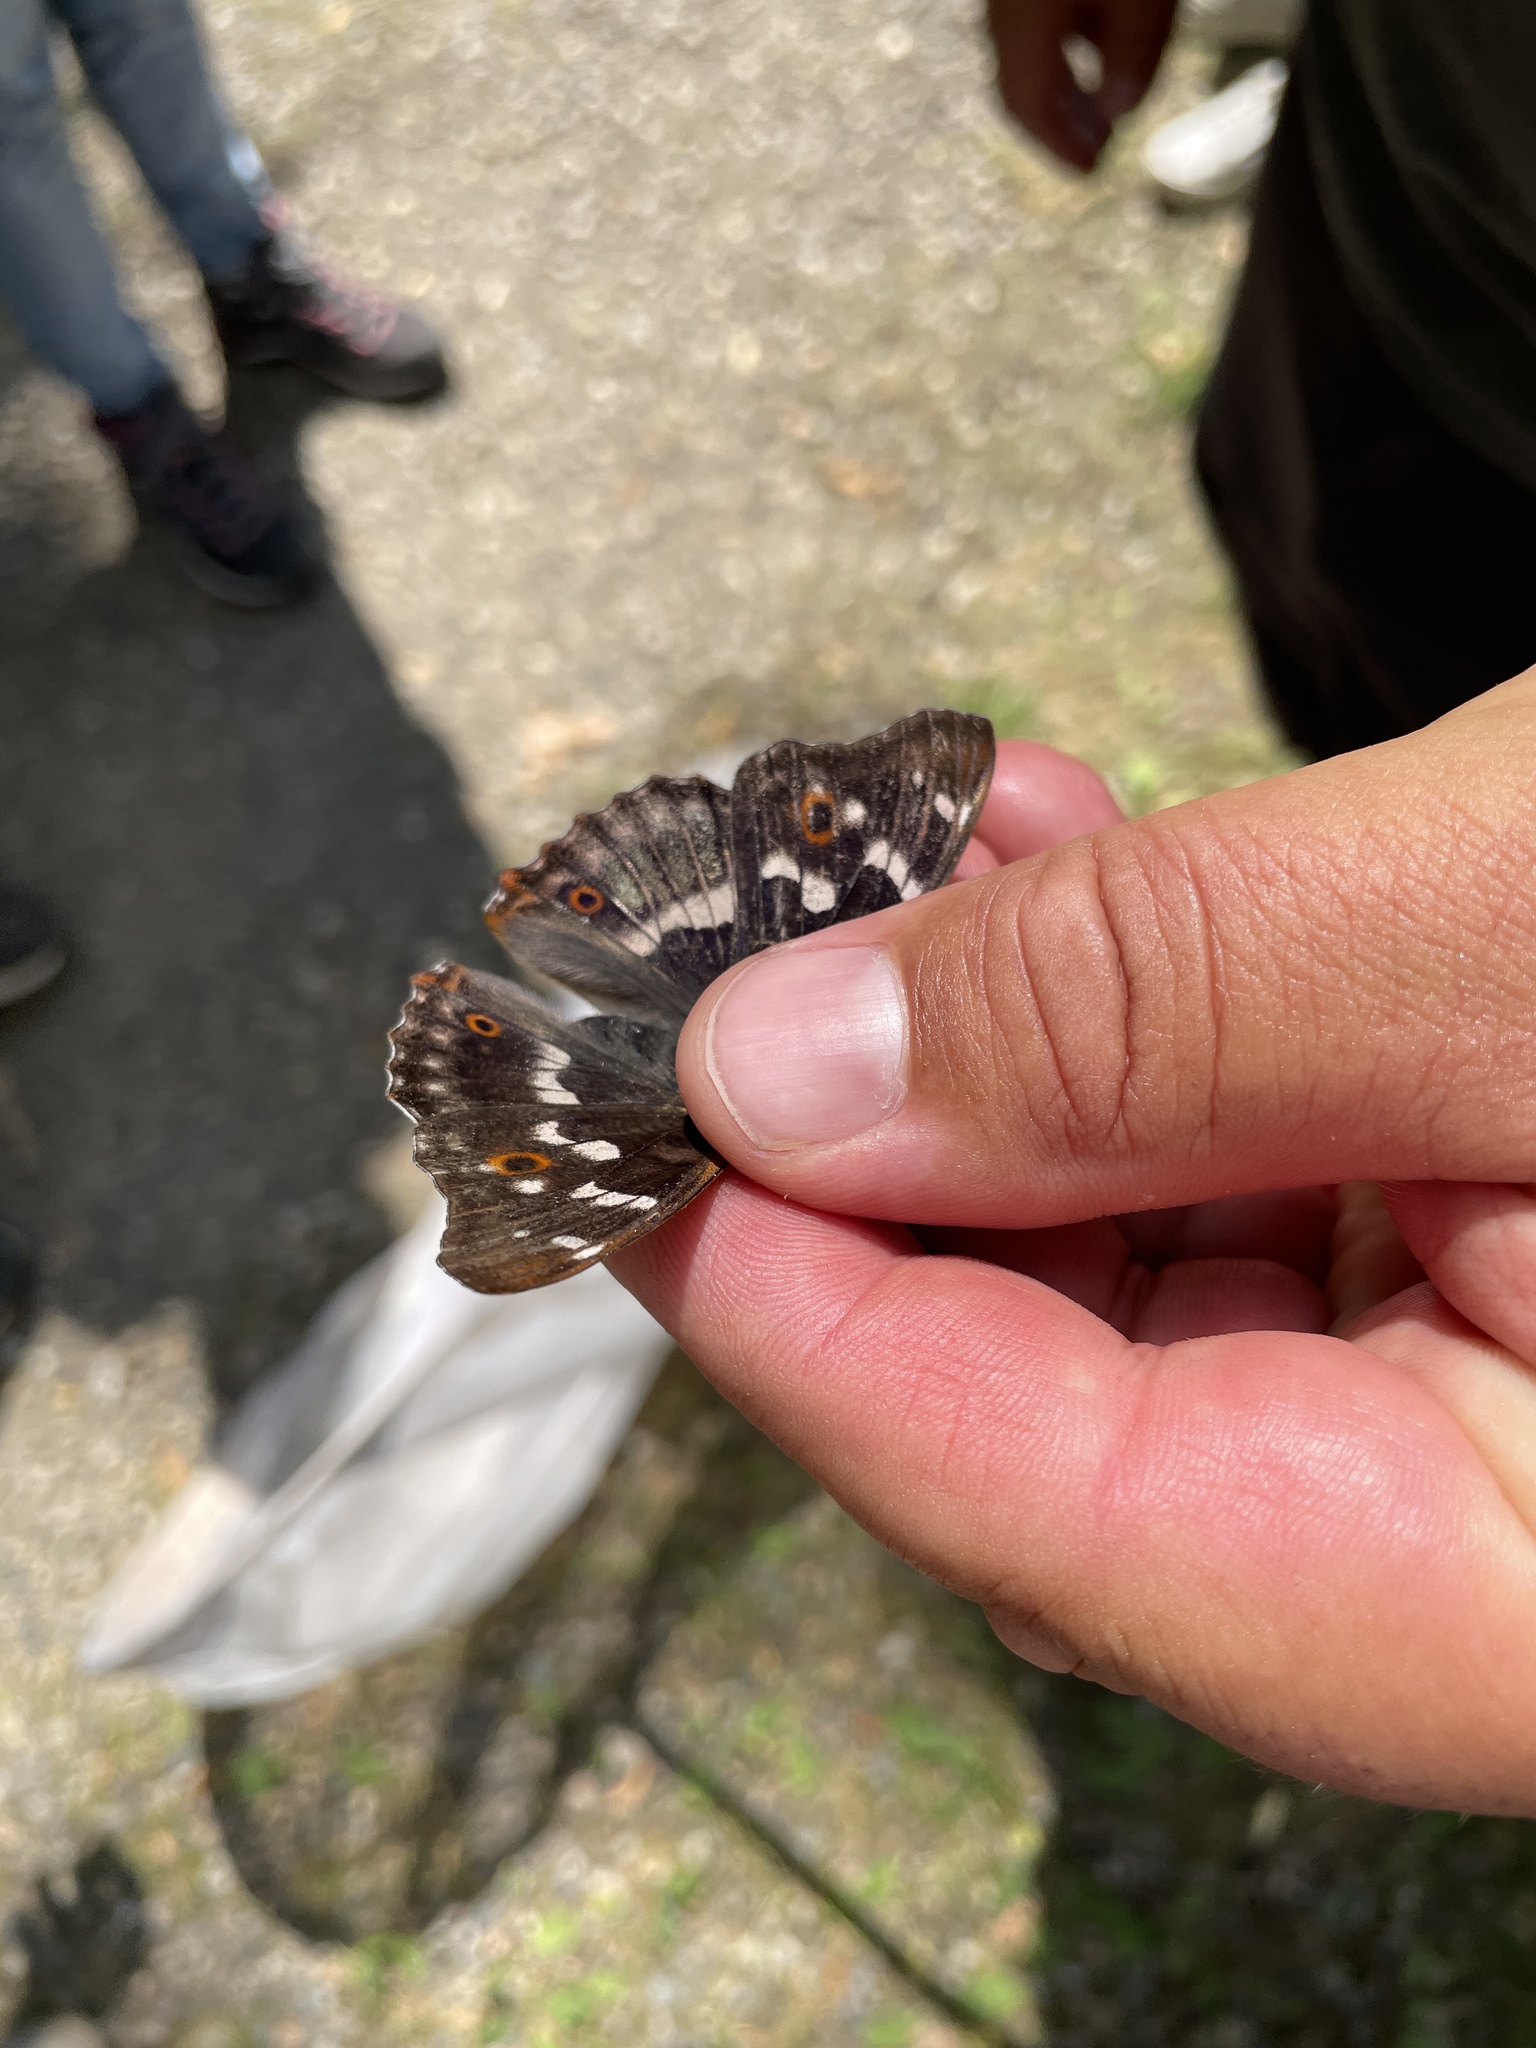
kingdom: Animalia
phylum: Arthropoda
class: Insecta
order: Lepidoptera
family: Nymphalidae
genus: Apatura
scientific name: Apatura ilia
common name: Lesser purple emperor
